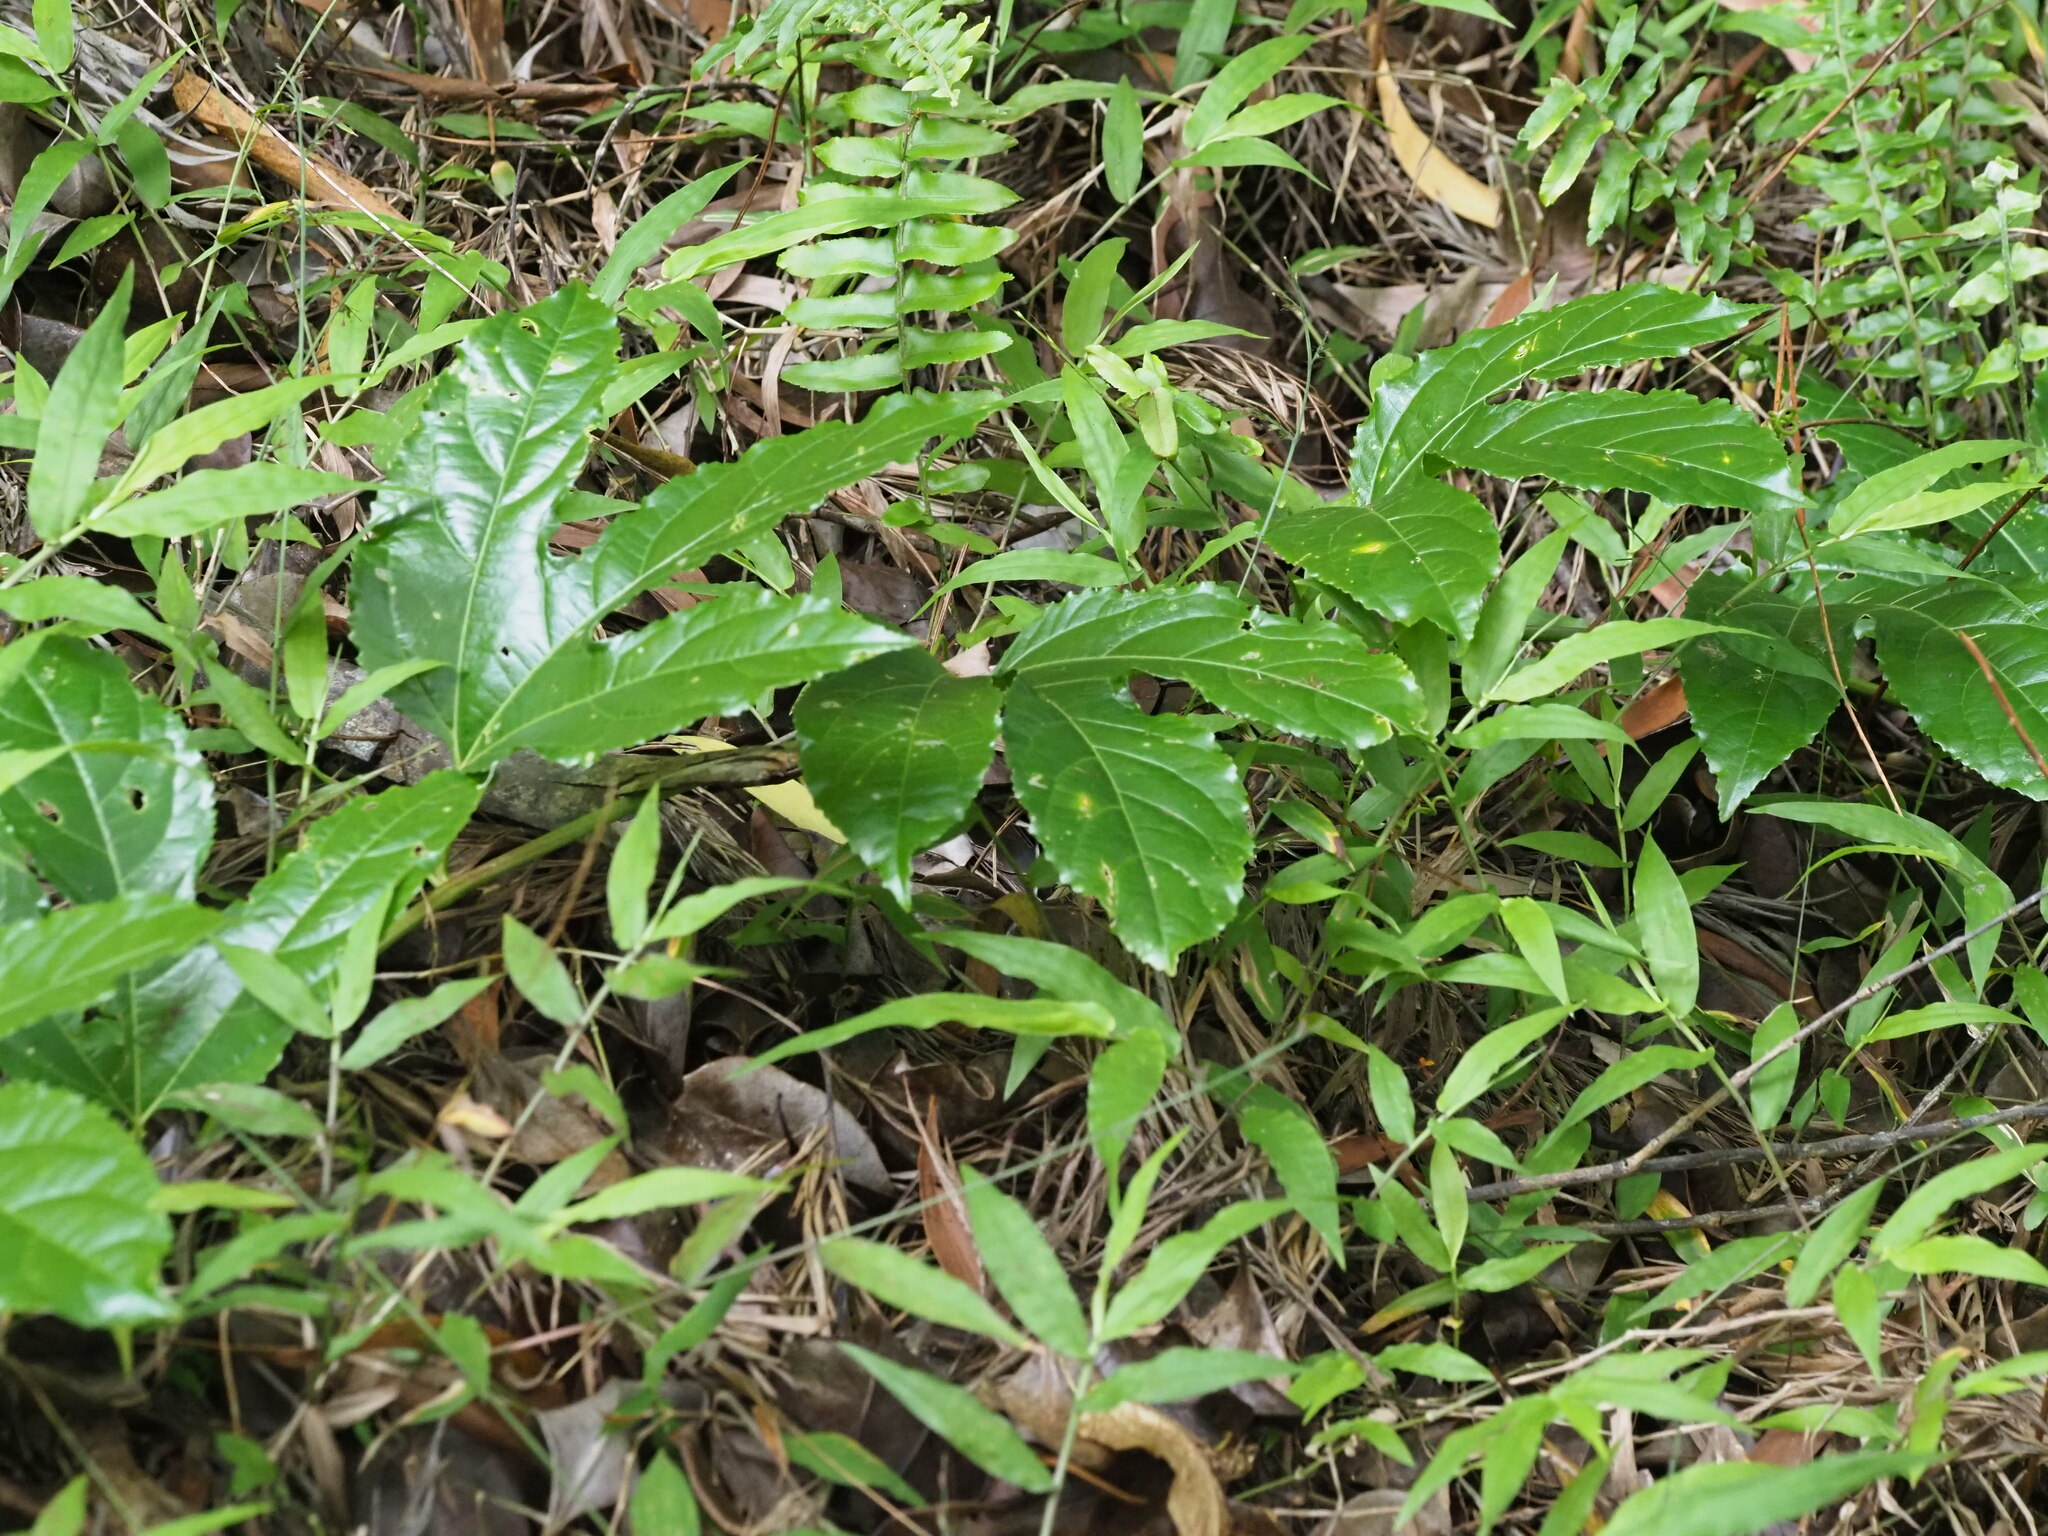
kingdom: Plantae
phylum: Tracheophyta
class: Magnoliopsida
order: Malpighiales
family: Passifloraceae
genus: Passiflora
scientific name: Passiflora edulis
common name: Purple granadilla
